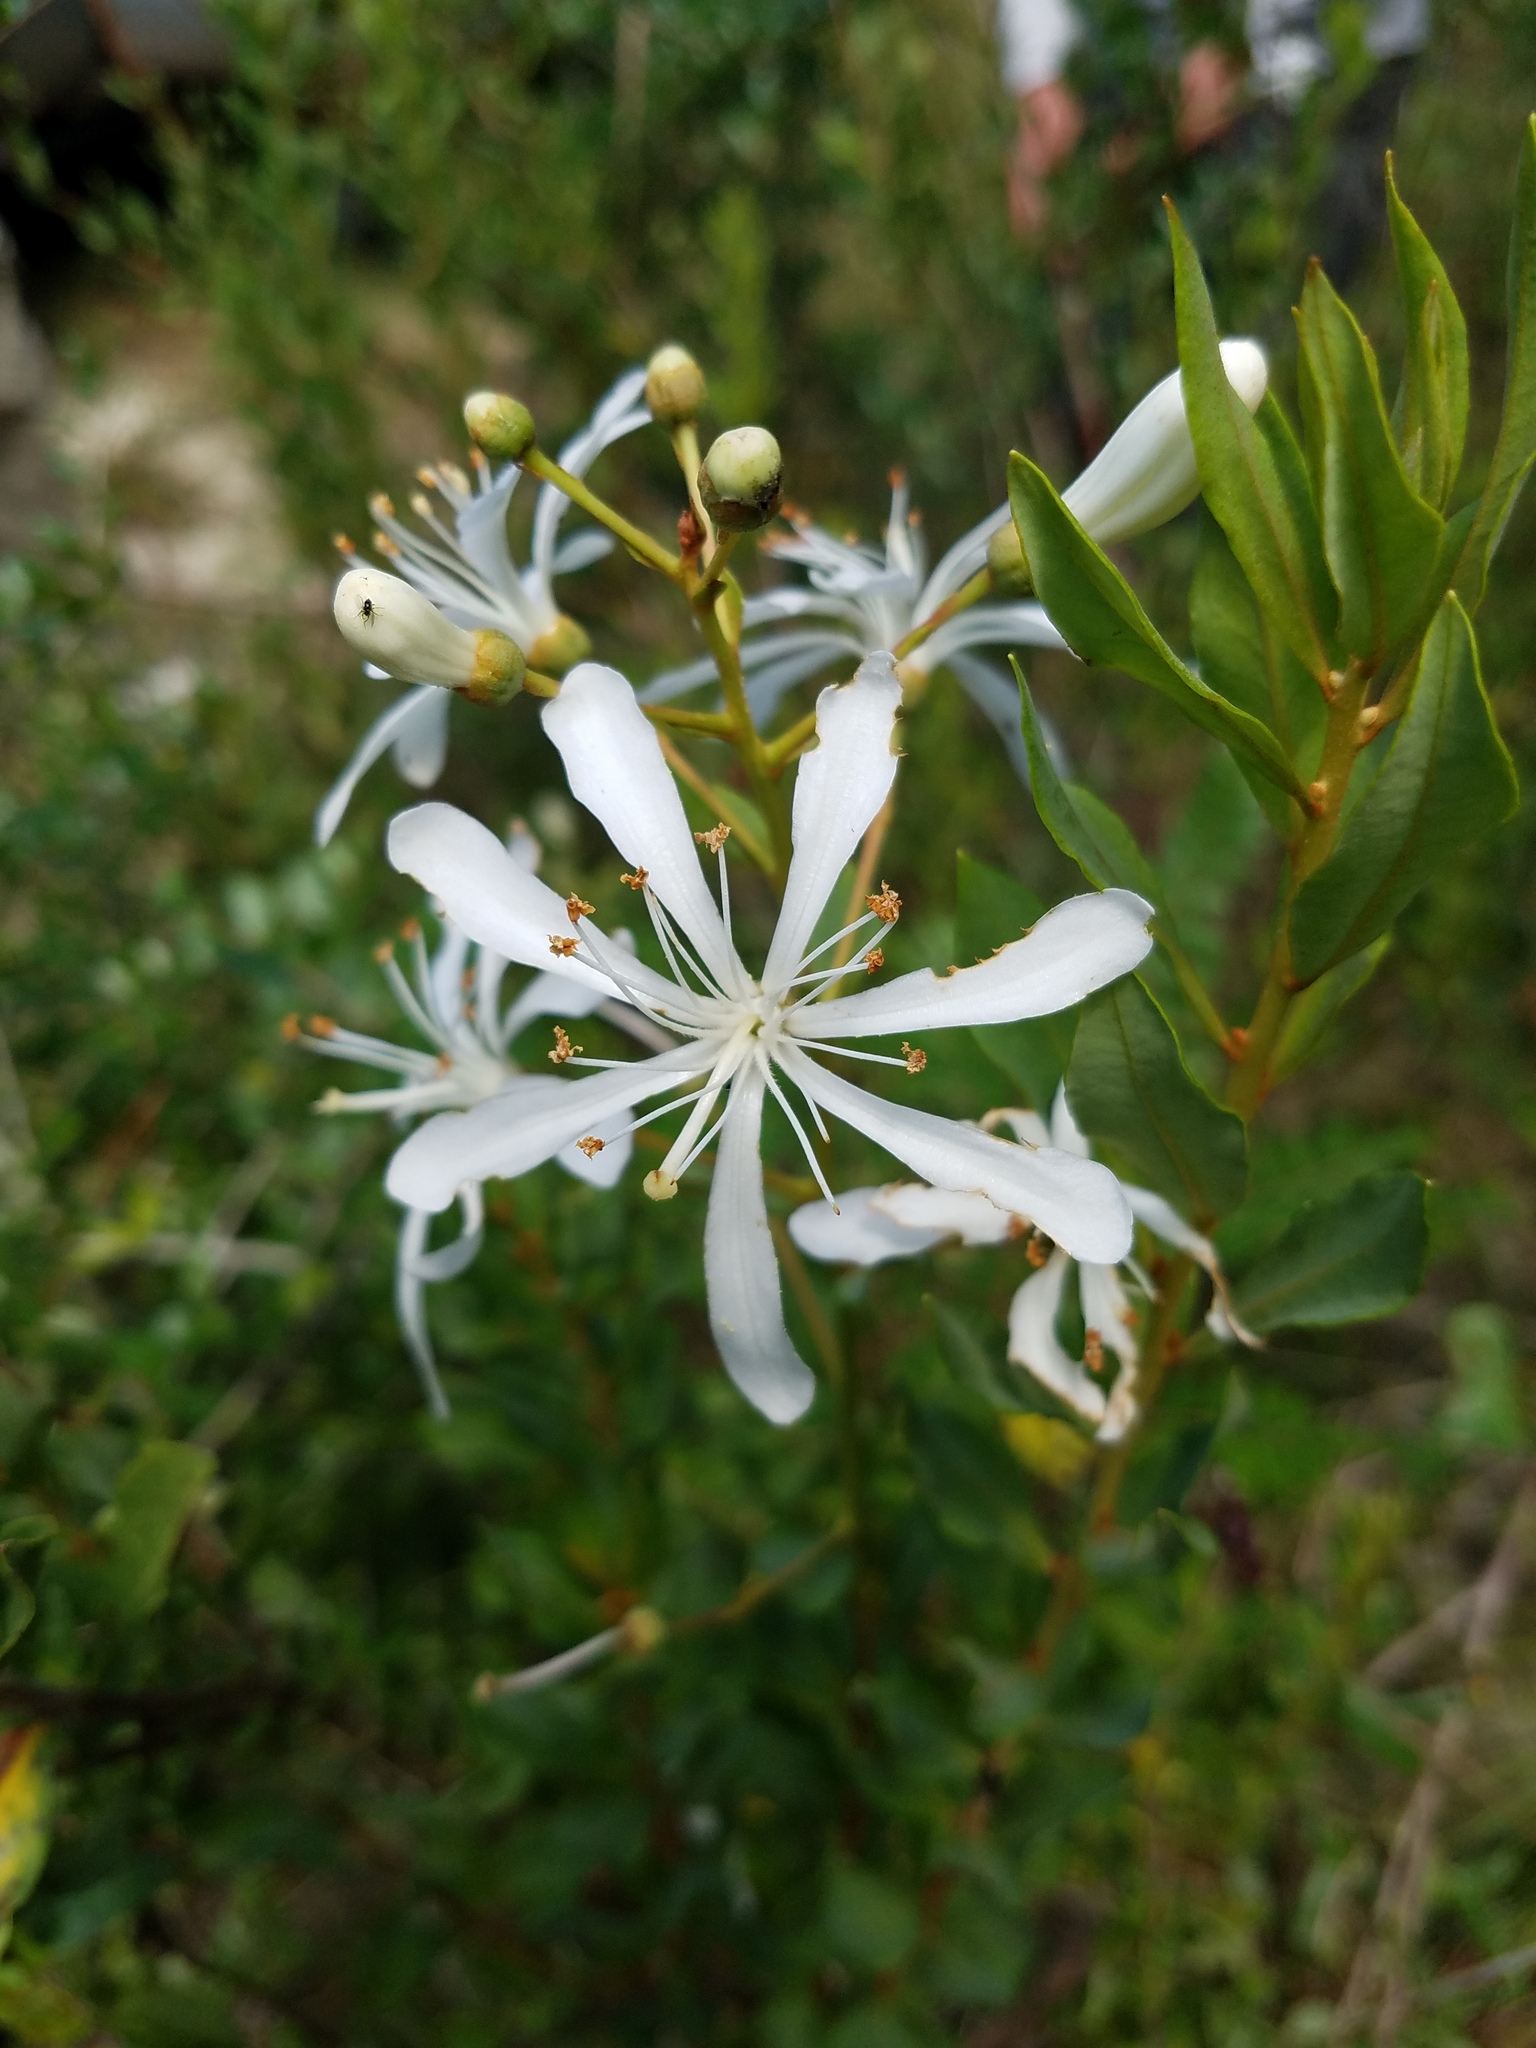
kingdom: Plantae
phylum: Tracheophyta
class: Magnoliopsida
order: Ericales
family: Ericaceae
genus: Bejaria
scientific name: Bejaria racemosa
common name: Tarflower
